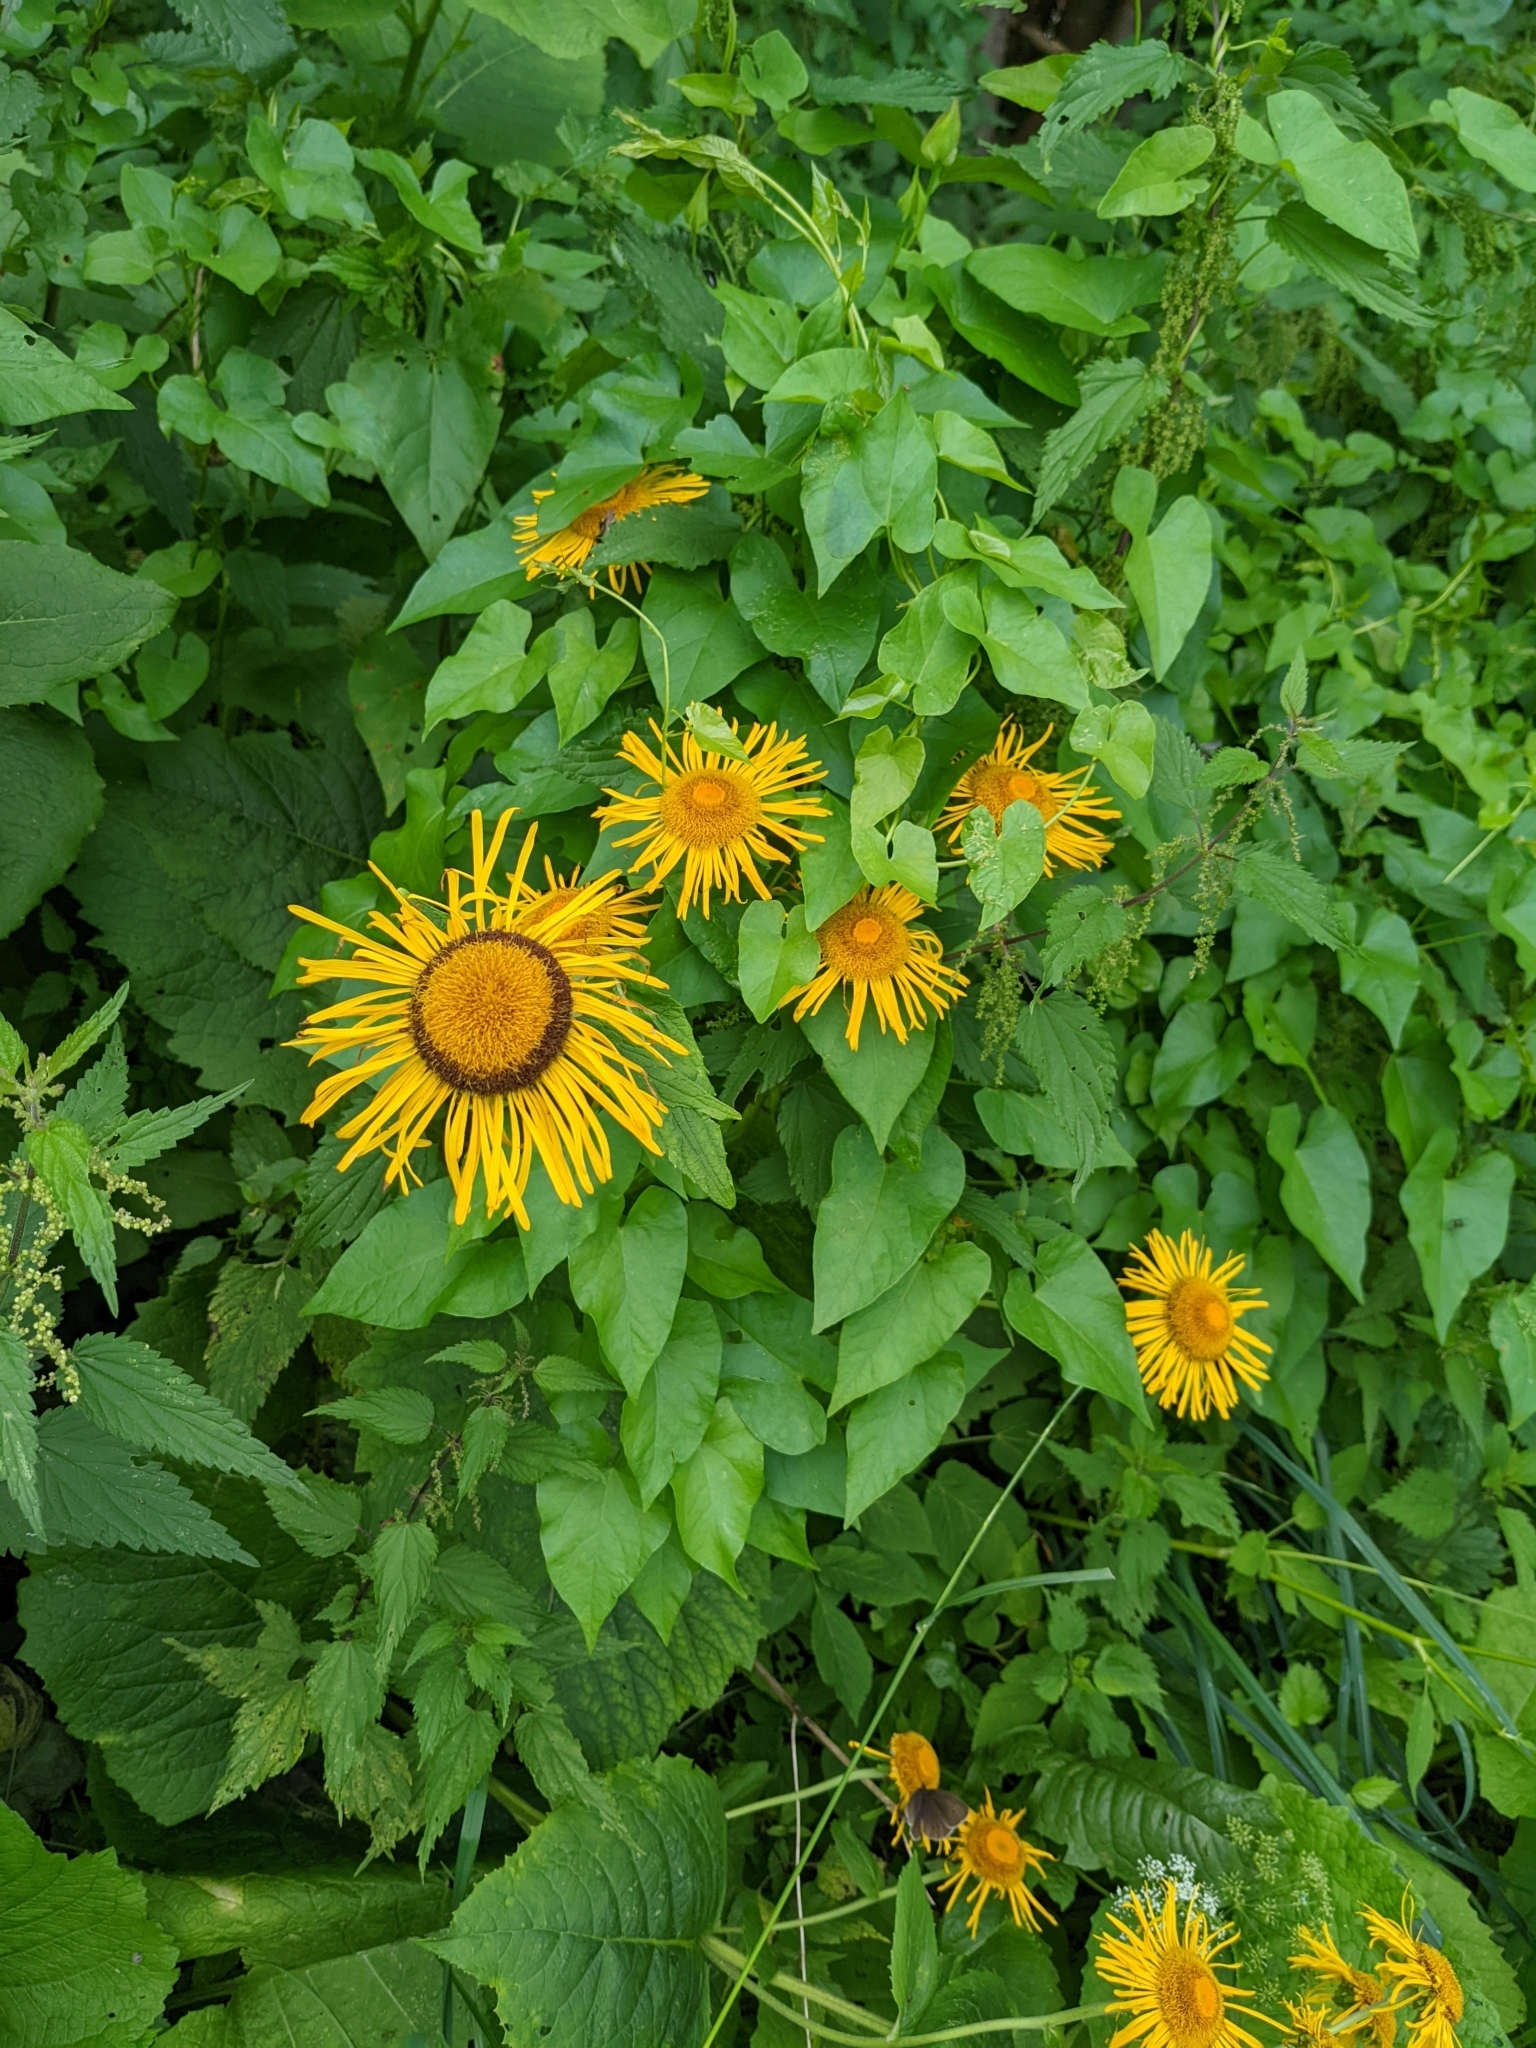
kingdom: Plantae
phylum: Tracheophyta
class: Magnoliopsida
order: Asterales
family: Asteraceae
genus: Telekia
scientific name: Telekia speciosa
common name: Yellow oxeye
